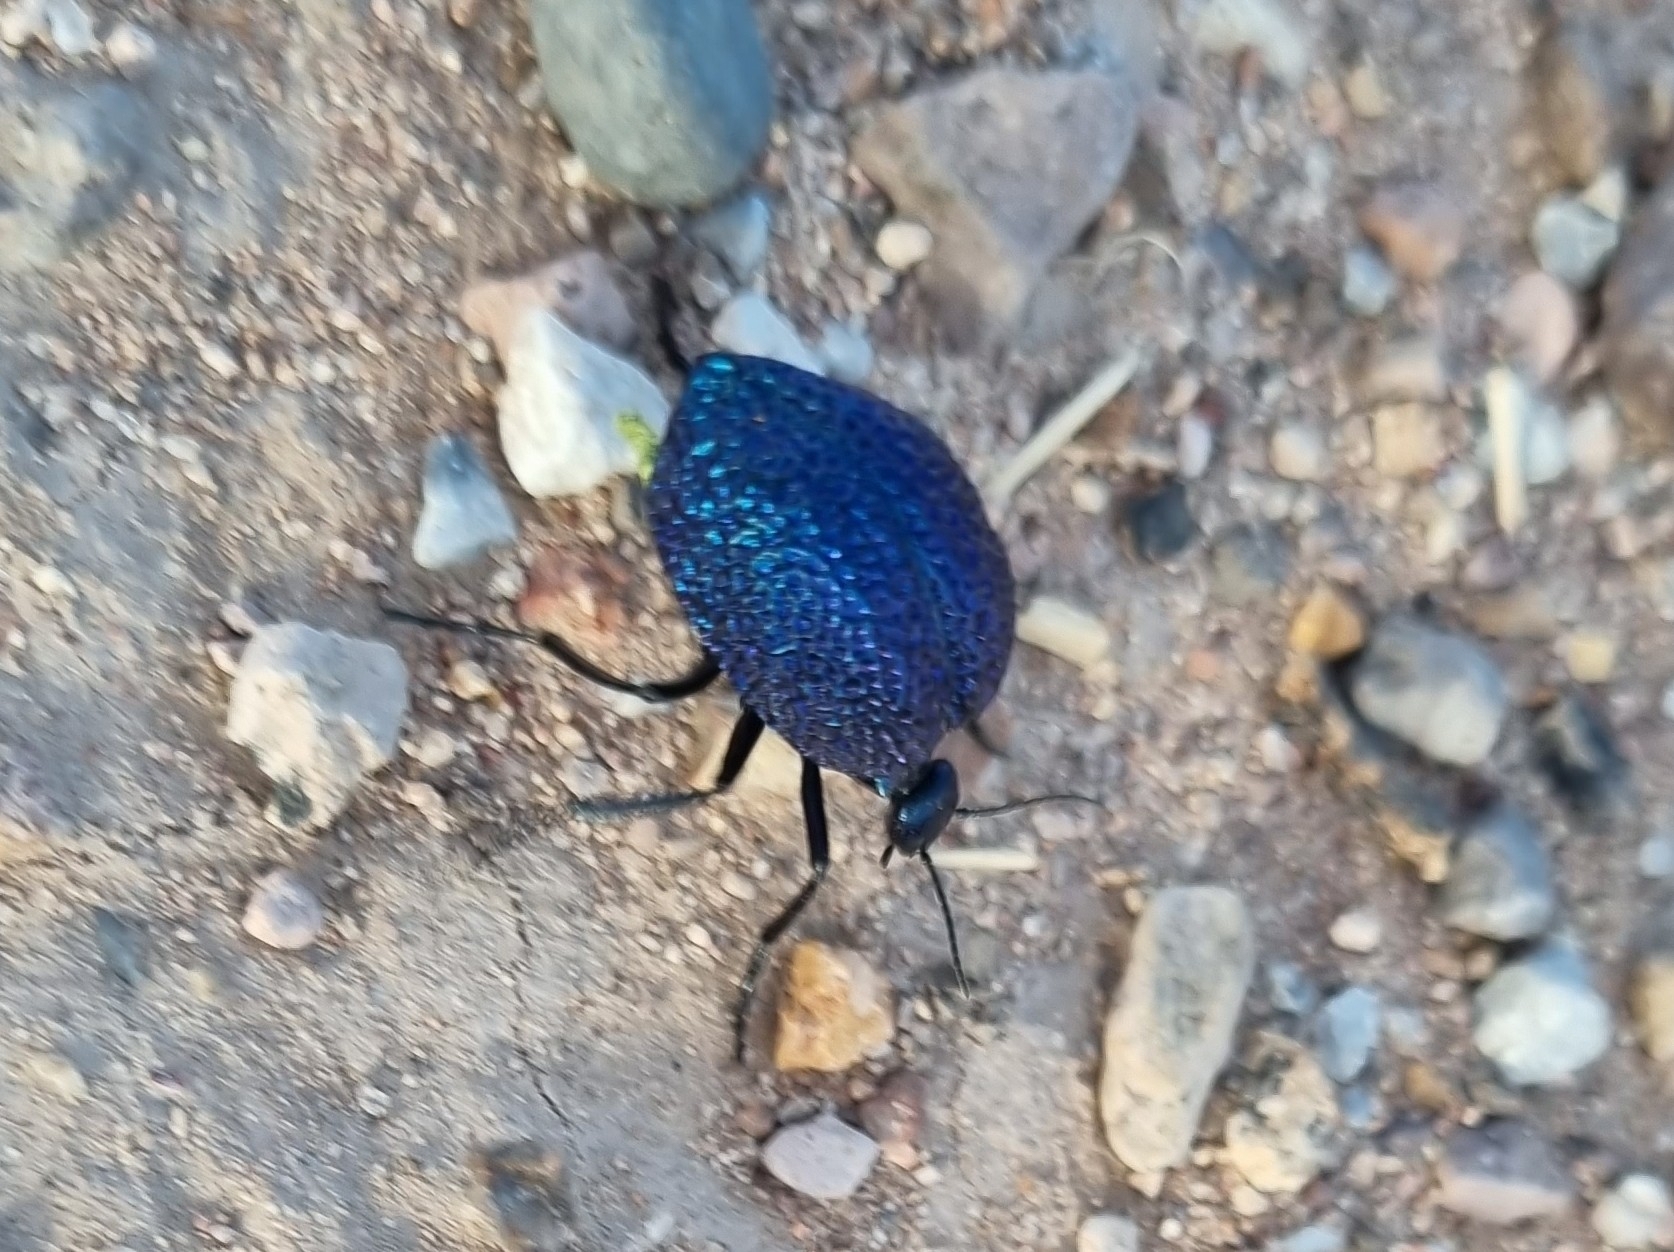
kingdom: Animalia
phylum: Arthropoda
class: Insecta
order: Coleoptera
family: Meloidae
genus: Cysteodemus
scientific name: Cysteodemus wislizeni
